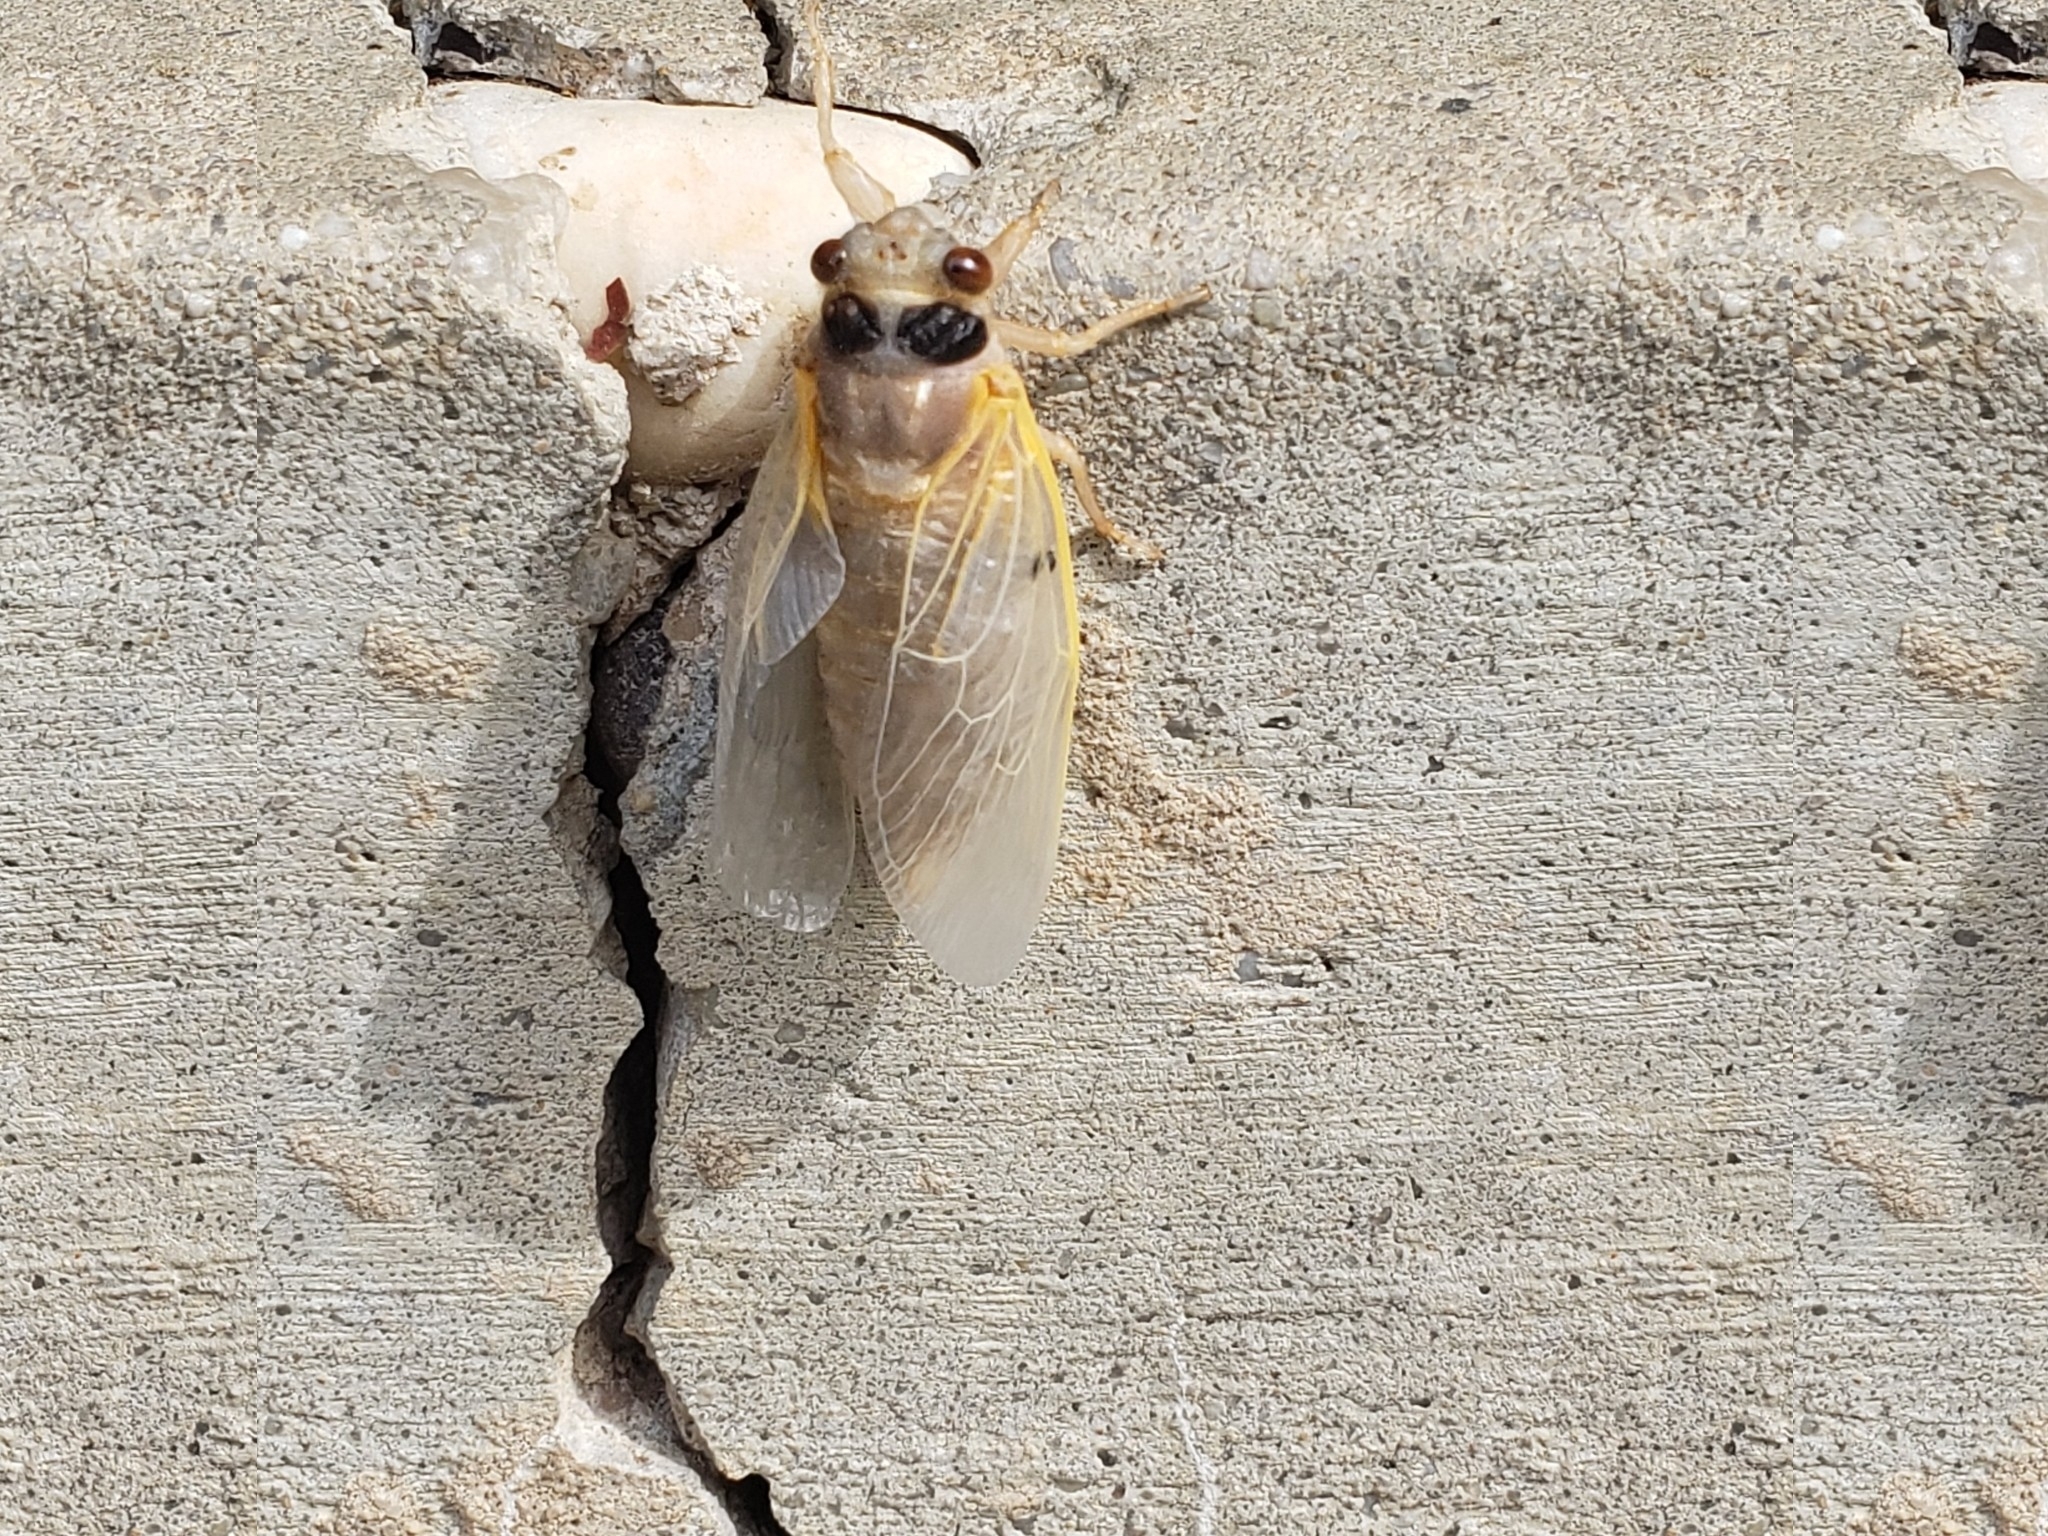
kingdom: Animalia
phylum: Arthropoda
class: Insecta
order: Hemiptera
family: Cicadidae
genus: Magicicada
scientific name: Magicicada
